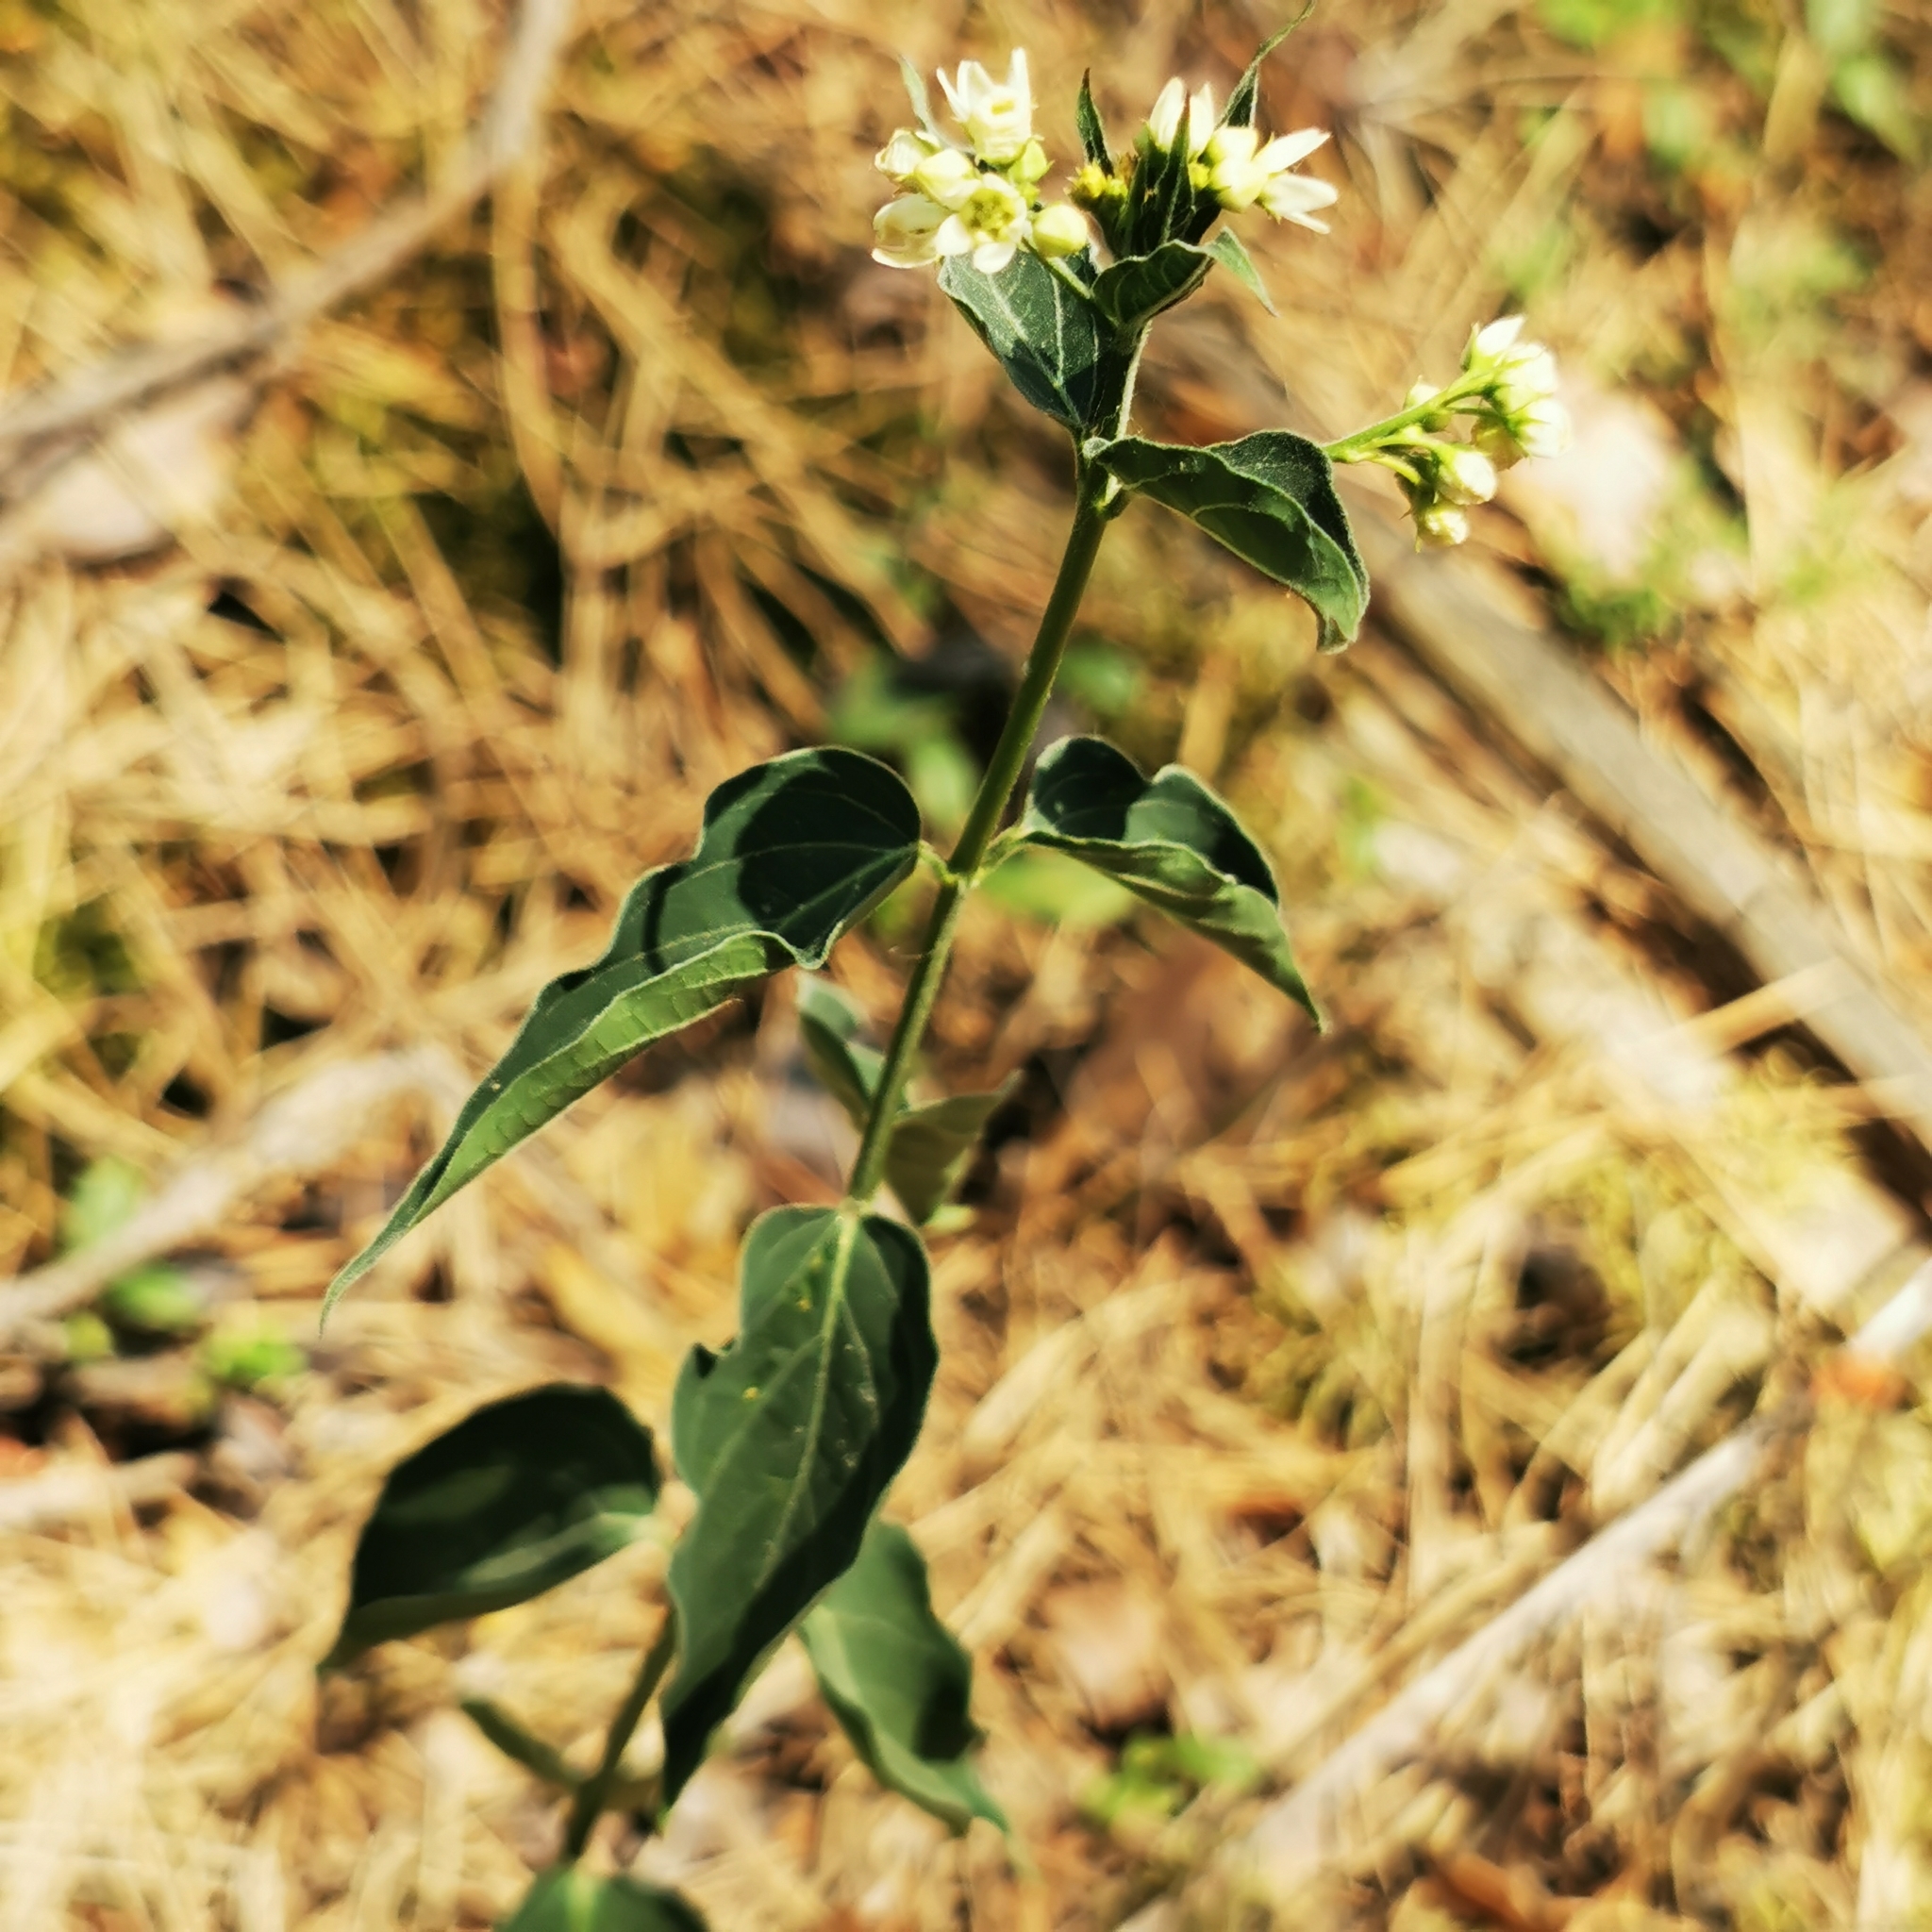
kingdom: Plantae
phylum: Tracheophyta
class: Magnoliopsida
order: Gentianales
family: Apocynaceae
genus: Vincetoxicum
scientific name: Vincetoxicum hirundinaria
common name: White swallowwort
